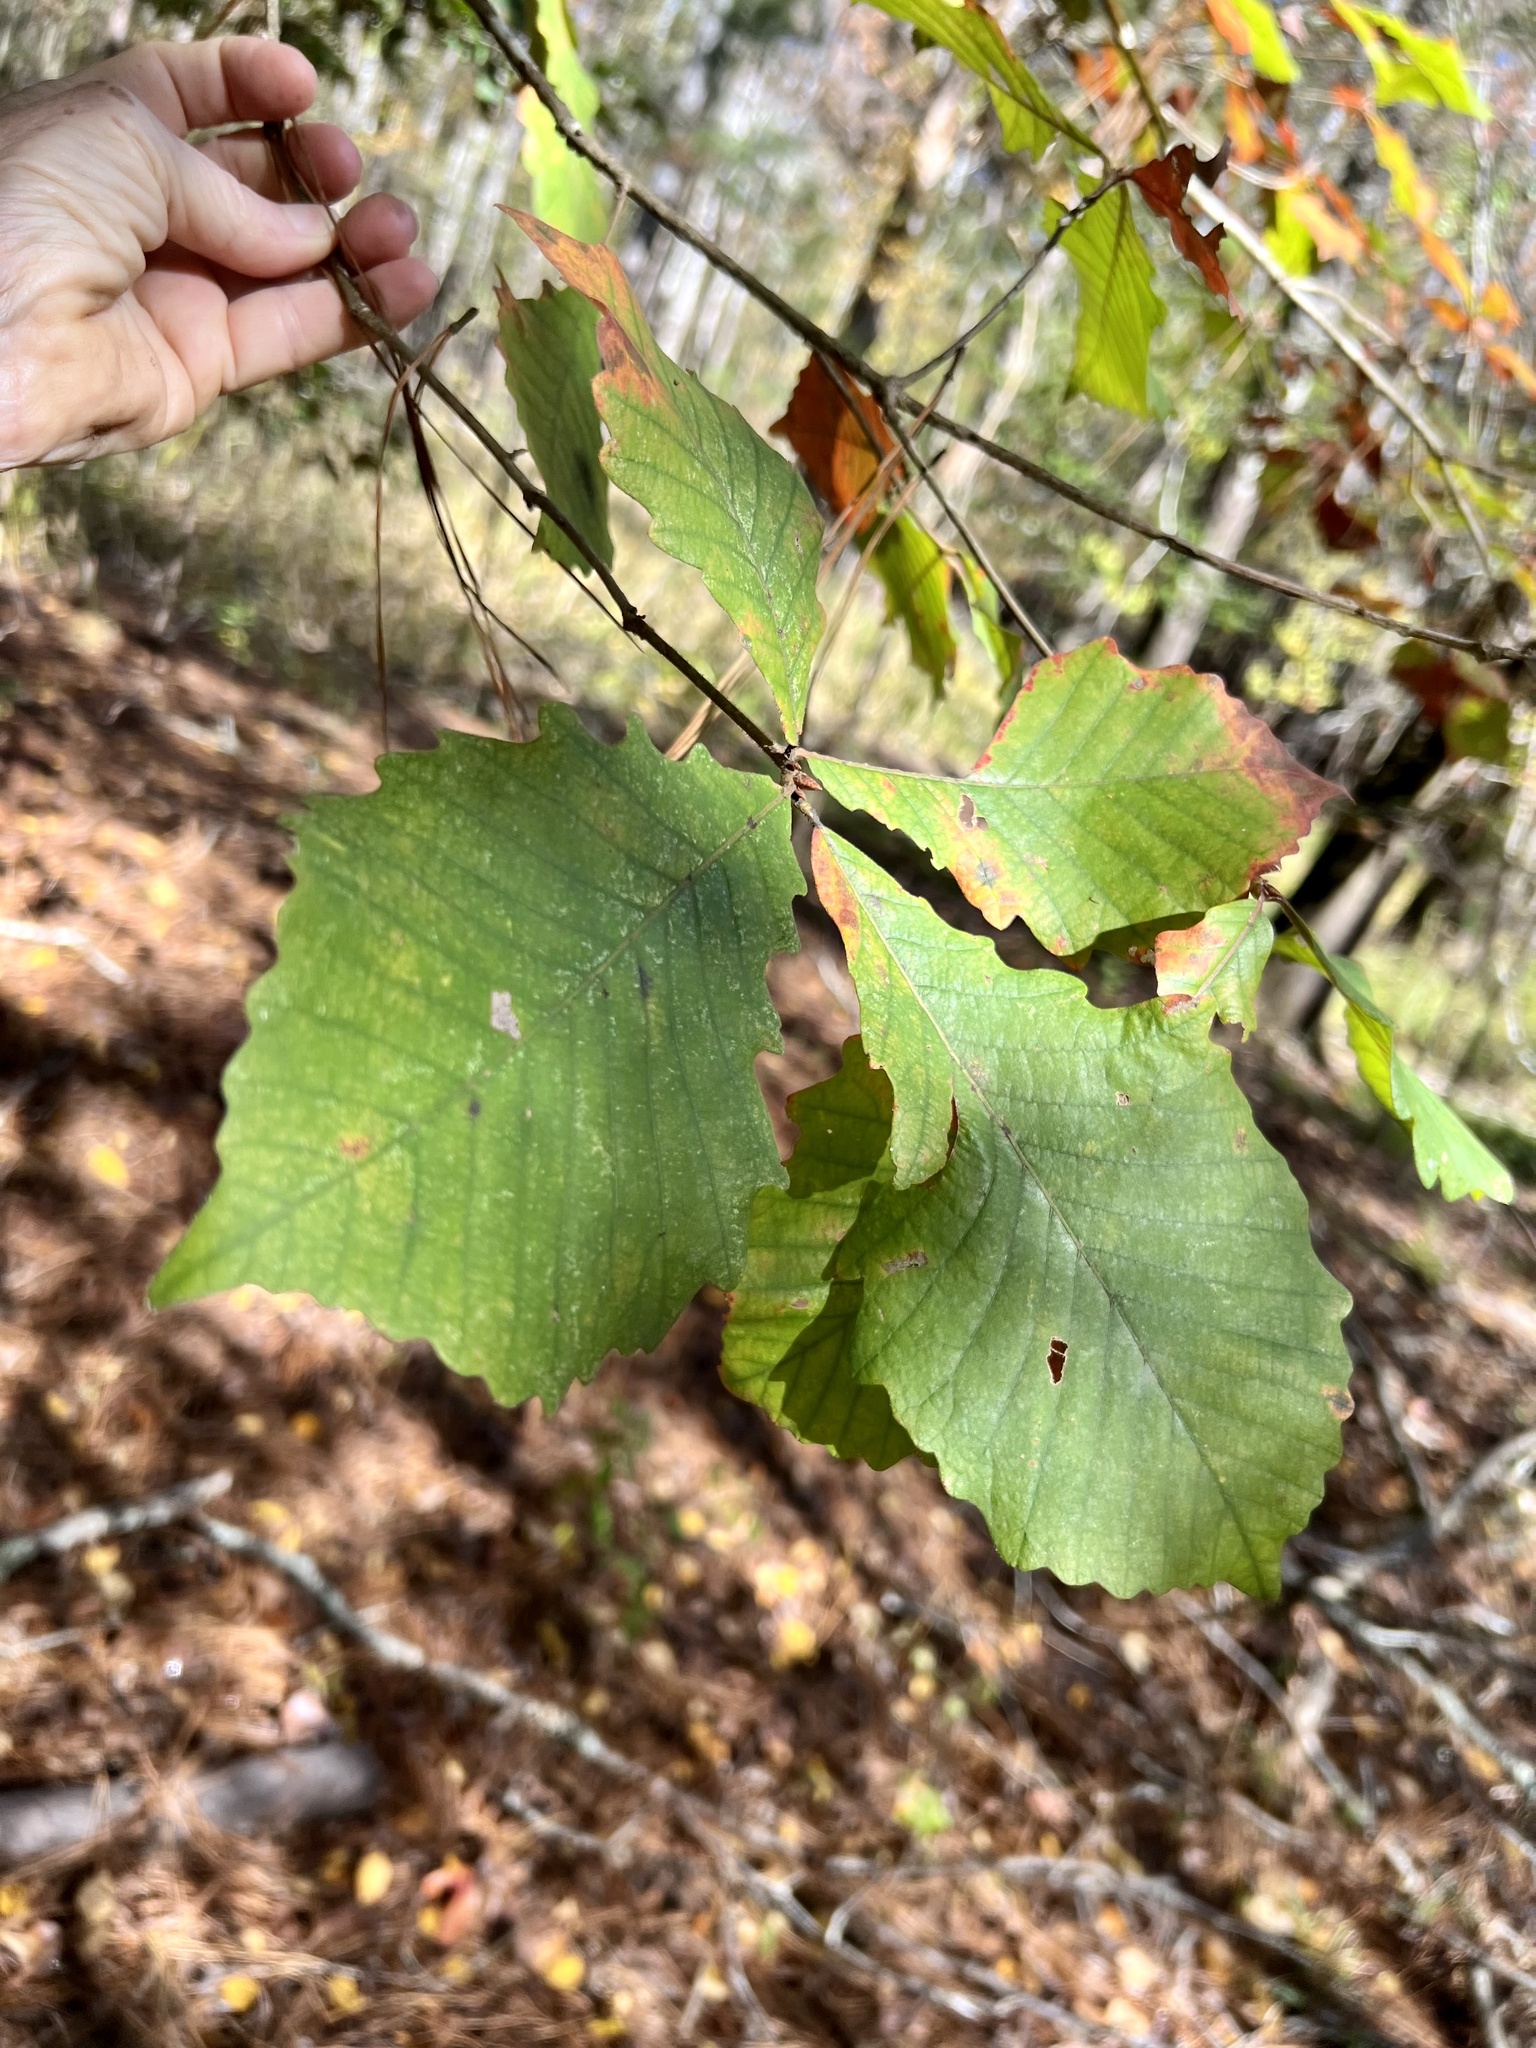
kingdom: Plantae
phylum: Tracheophyta
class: Magnoliopsida
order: Fagales
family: Fagaceae
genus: Quercus
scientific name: Quercus michauxii
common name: Swamp chestnut oak
